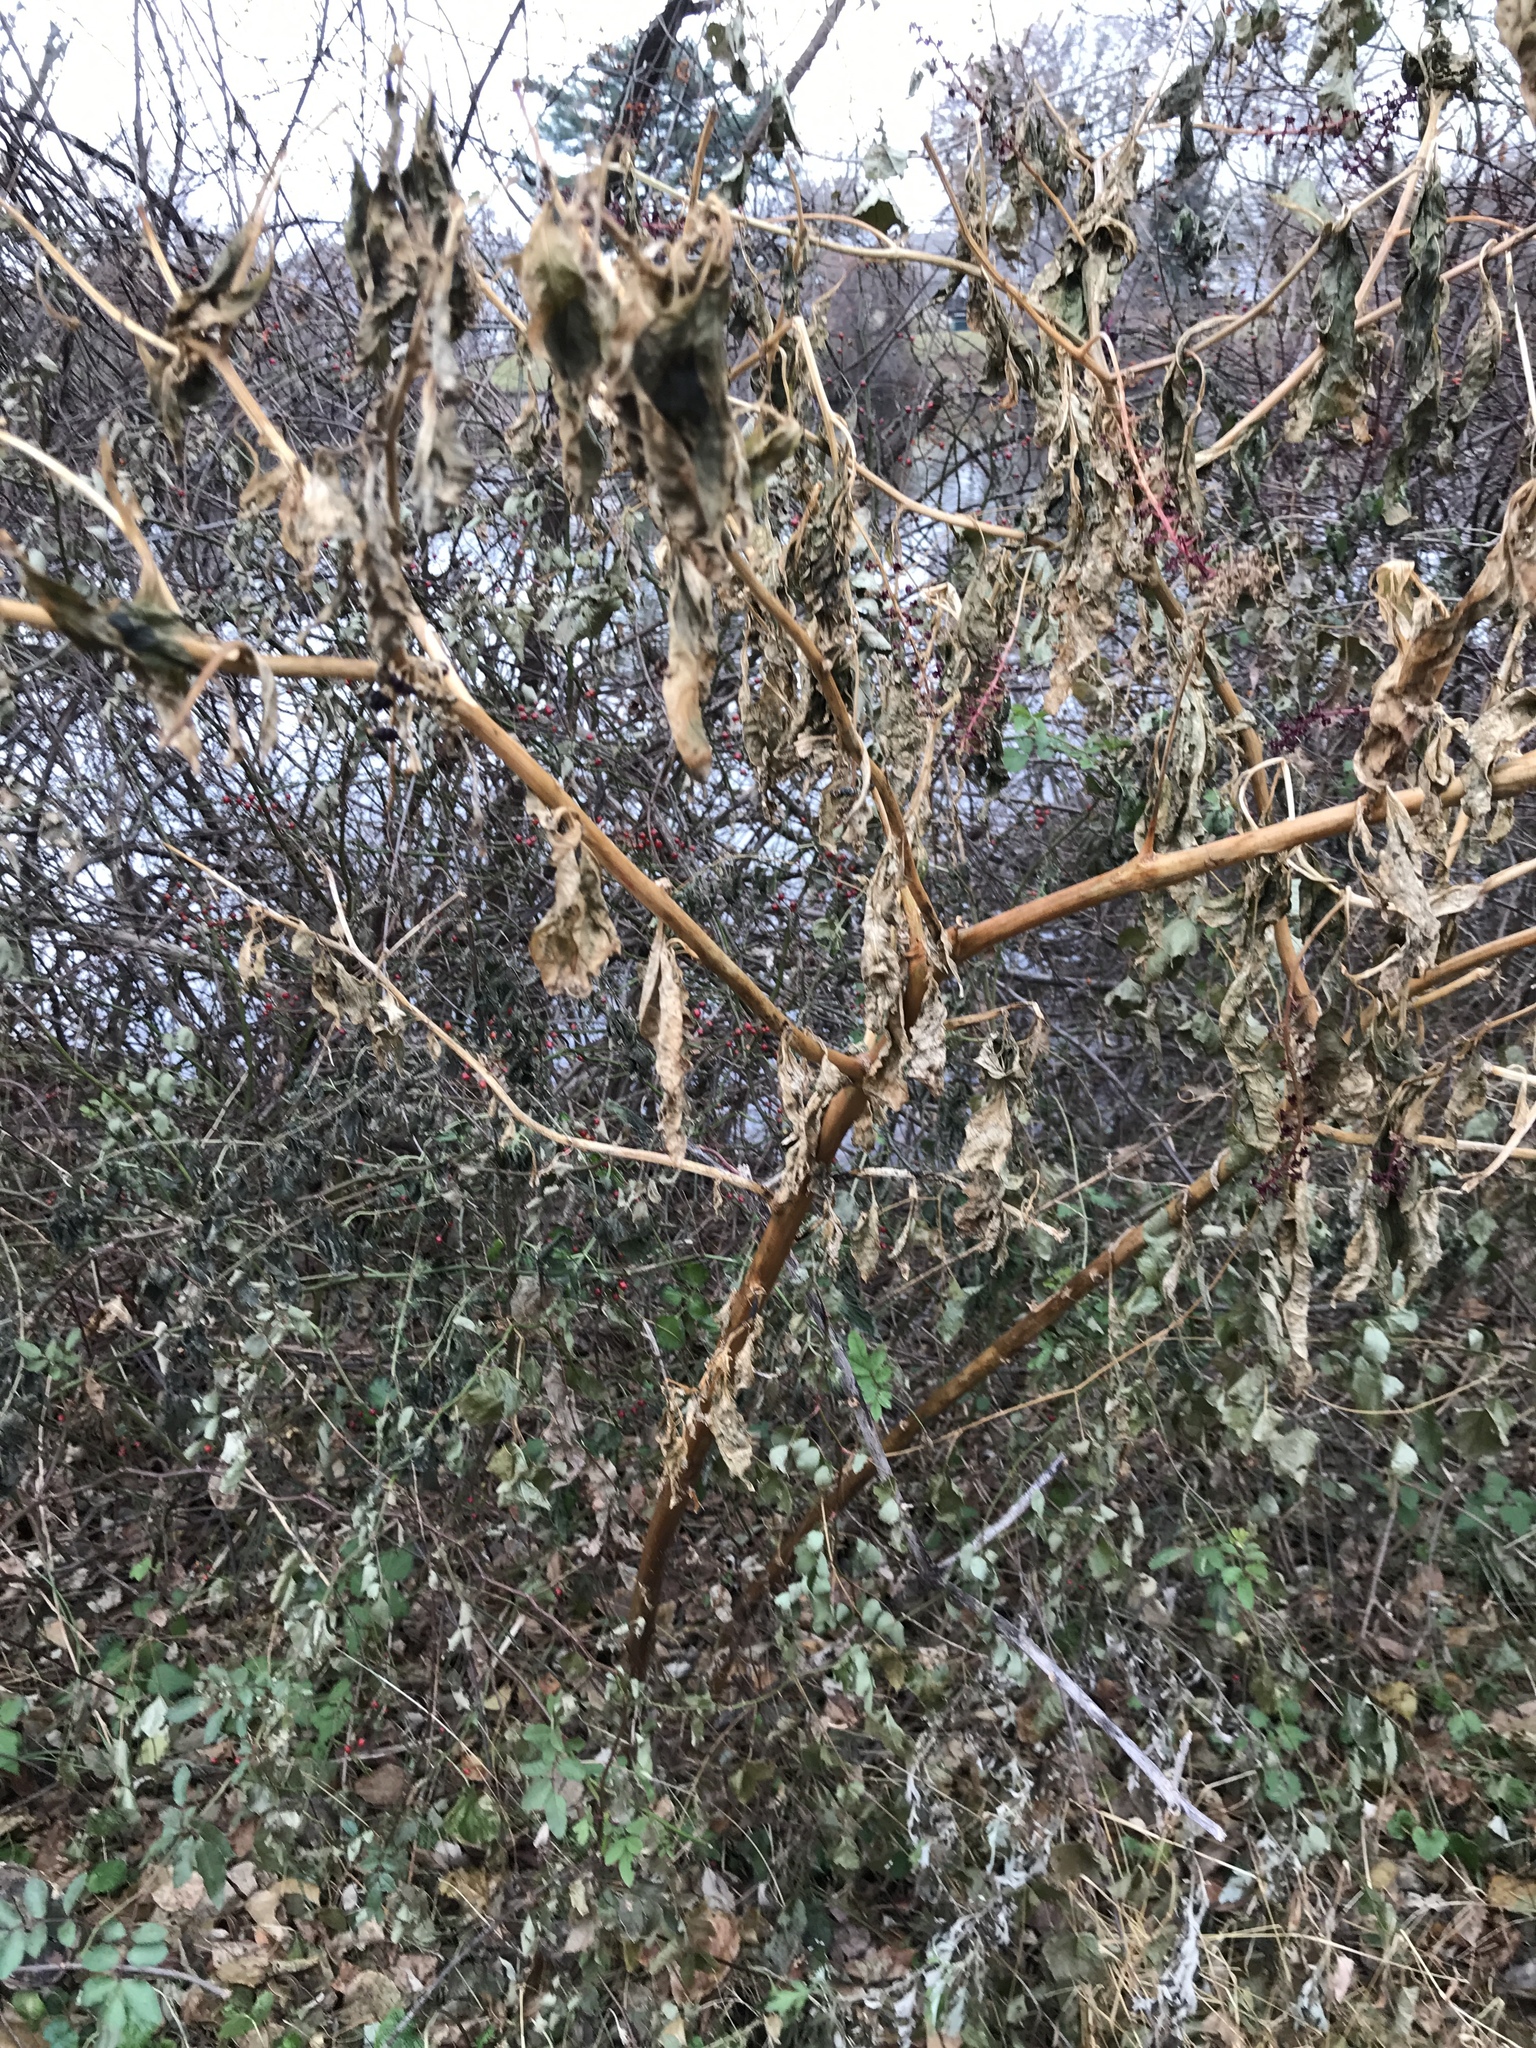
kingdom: Plantae
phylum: Tracheophyta
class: Magnoliopsida
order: Caryophyllales
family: Phytolaccaceae
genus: Phytolacca
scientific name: Phytolacca americana
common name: American pokeweed
